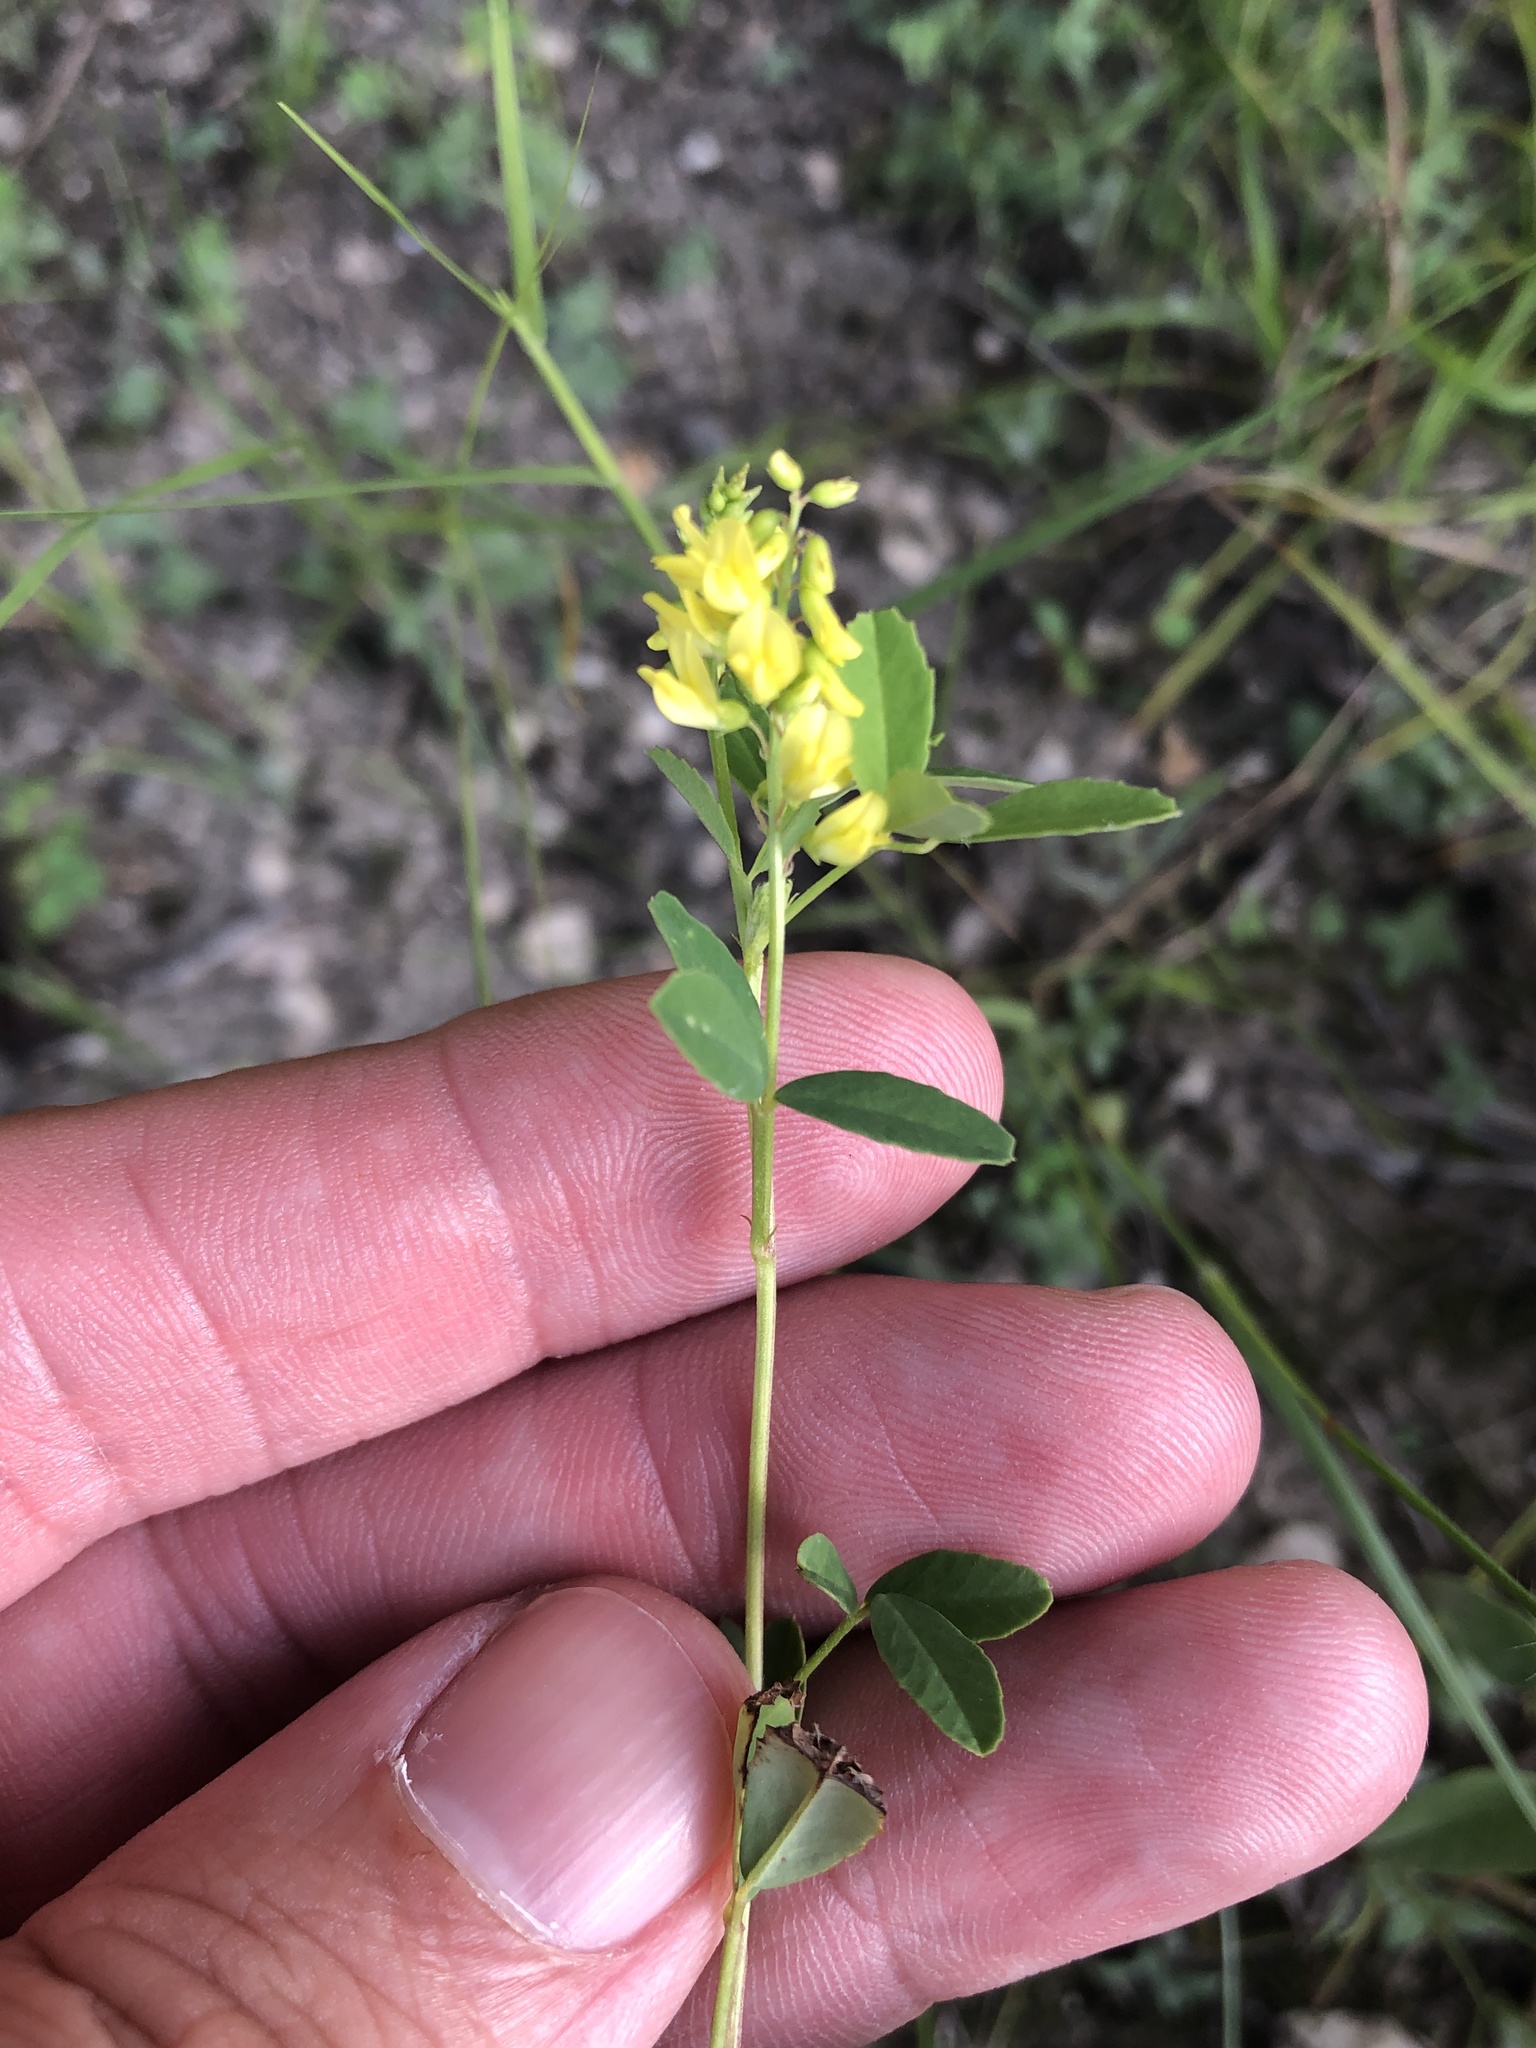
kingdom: Plantae
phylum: Tracheophyta
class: Magnoliopsida
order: Fabales
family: Fabaceae
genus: Melilotus
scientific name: Melilotus officinalis
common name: Sweetclover
